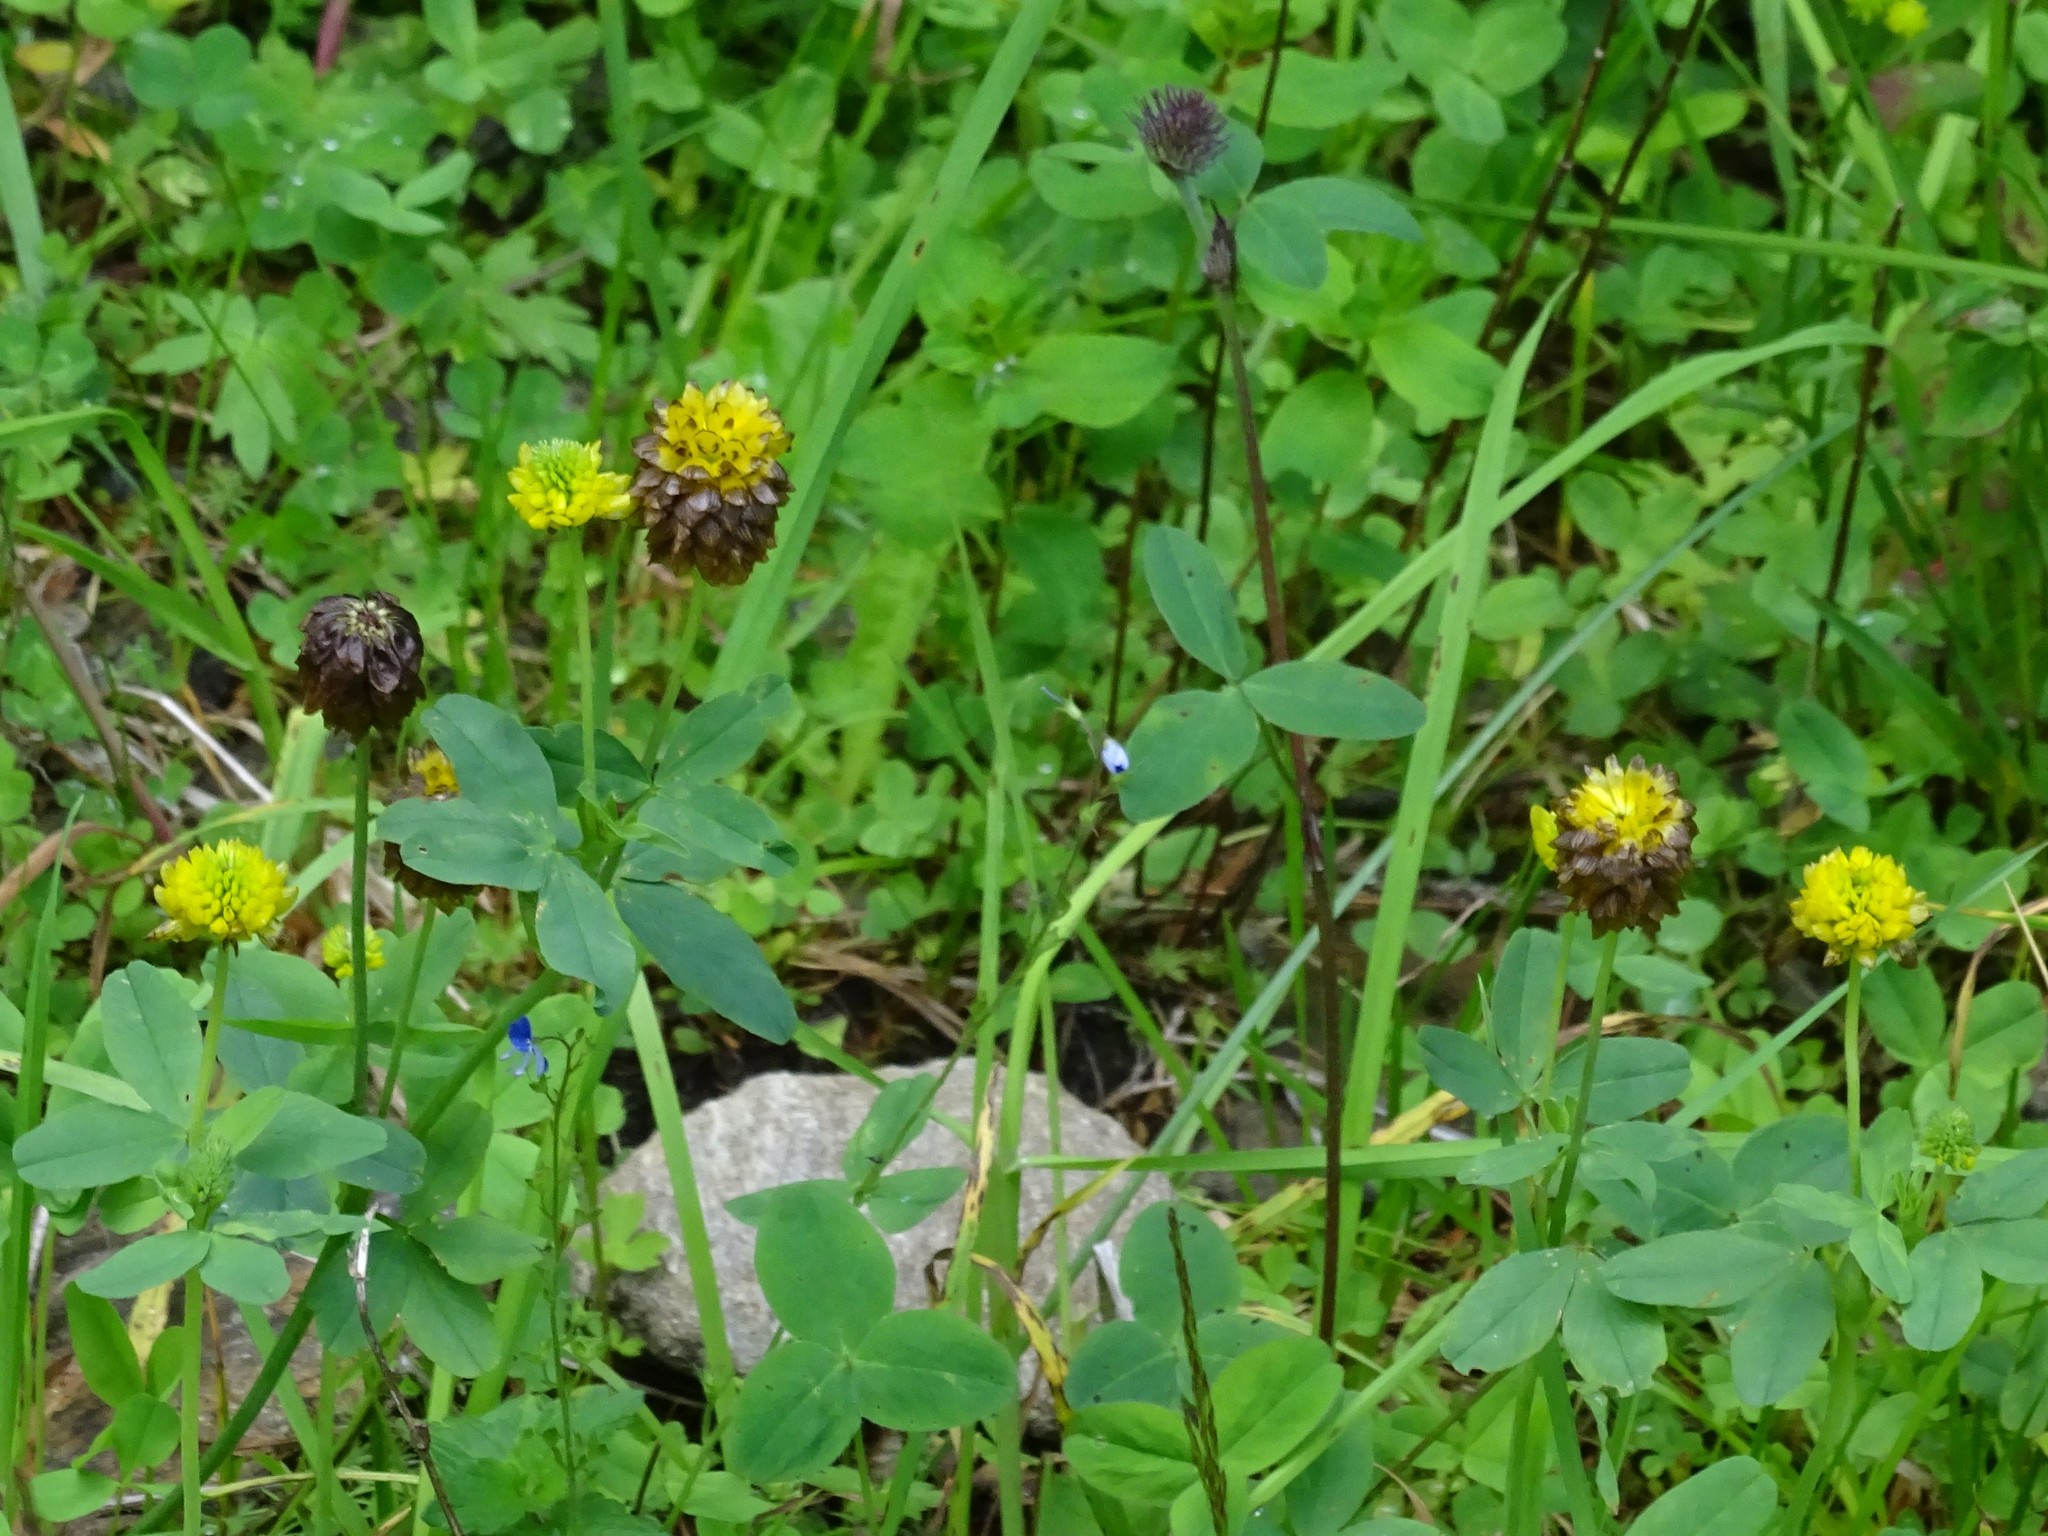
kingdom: Plantae
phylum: Tracheophyta
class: Magnoliopsida
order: Fabales
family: Fabaceae
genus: Trifolium
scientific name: Trifolium badium
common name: Brown clover
